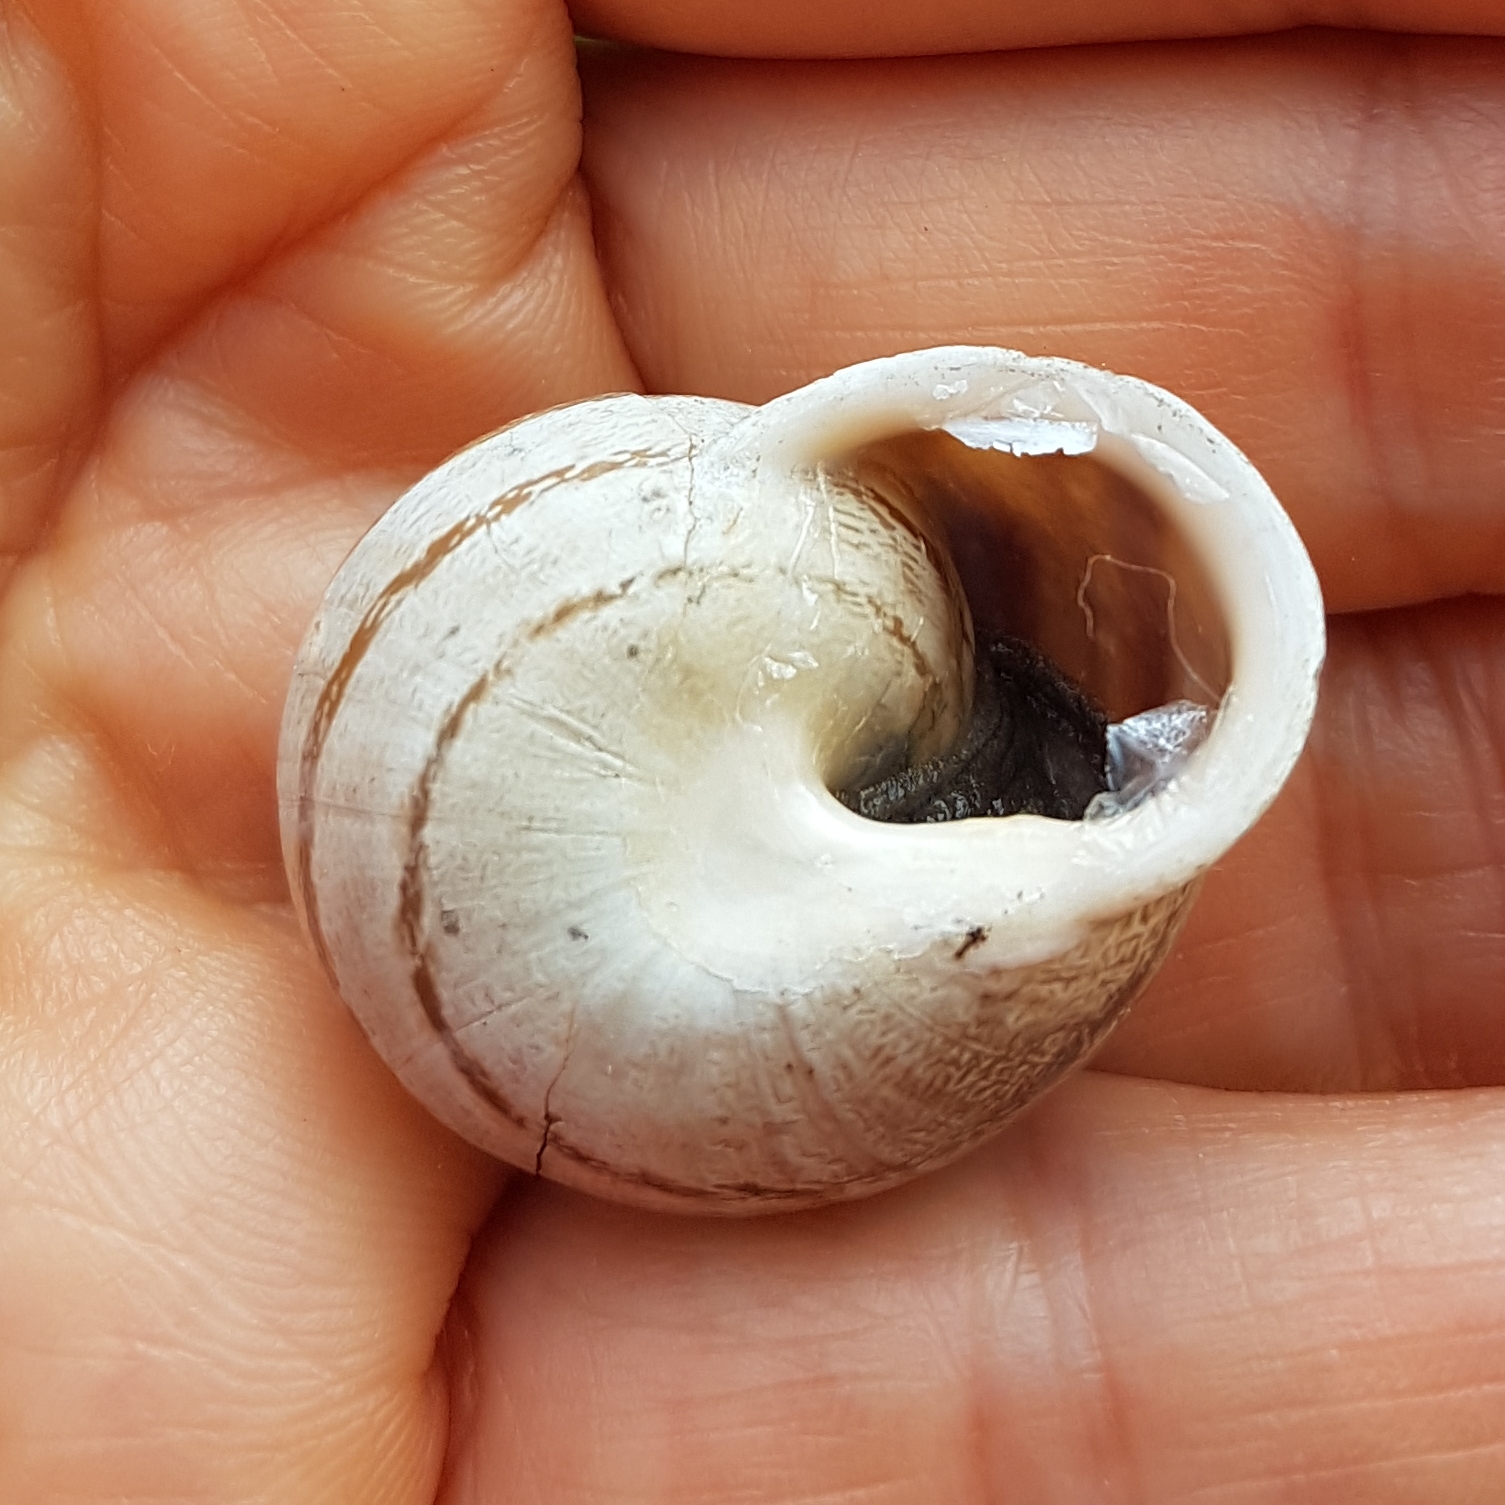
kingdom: Animalia
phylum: Mollusca
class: Gastropoda
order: Stylommatophora
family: Helicidae
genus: Eobania
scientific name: Eobania vermiculata
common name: Chocolateband snail
